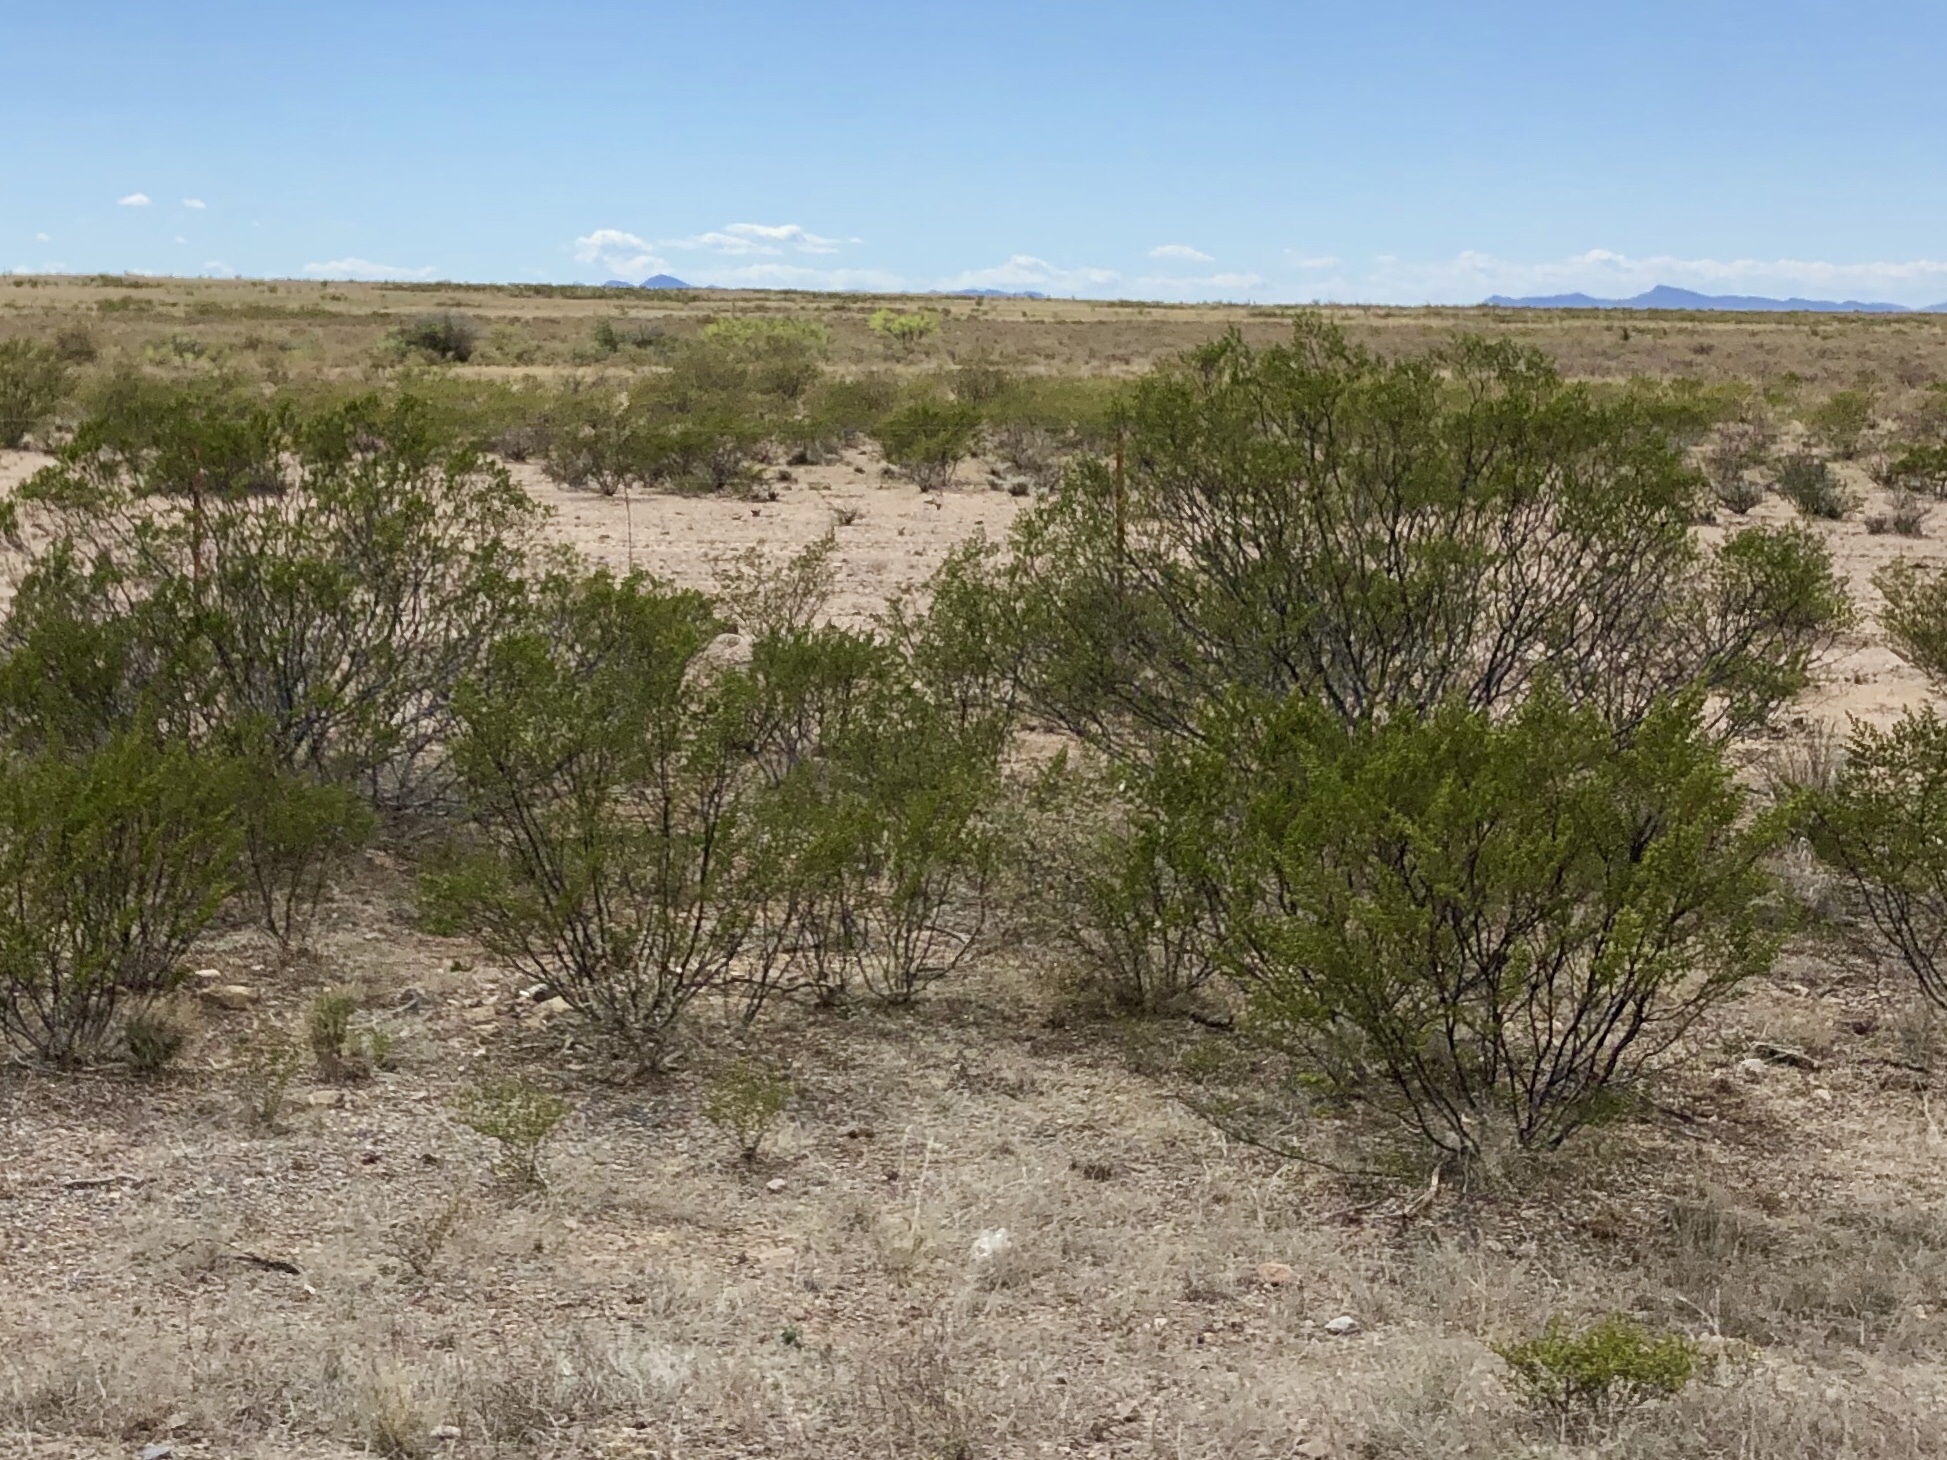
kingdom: Plantae
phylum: Tracheophyta
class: Magnoliopsida
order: Zygophyllales
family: Zygophyllaceae
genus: Larrea
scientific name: Larrea tridentata
